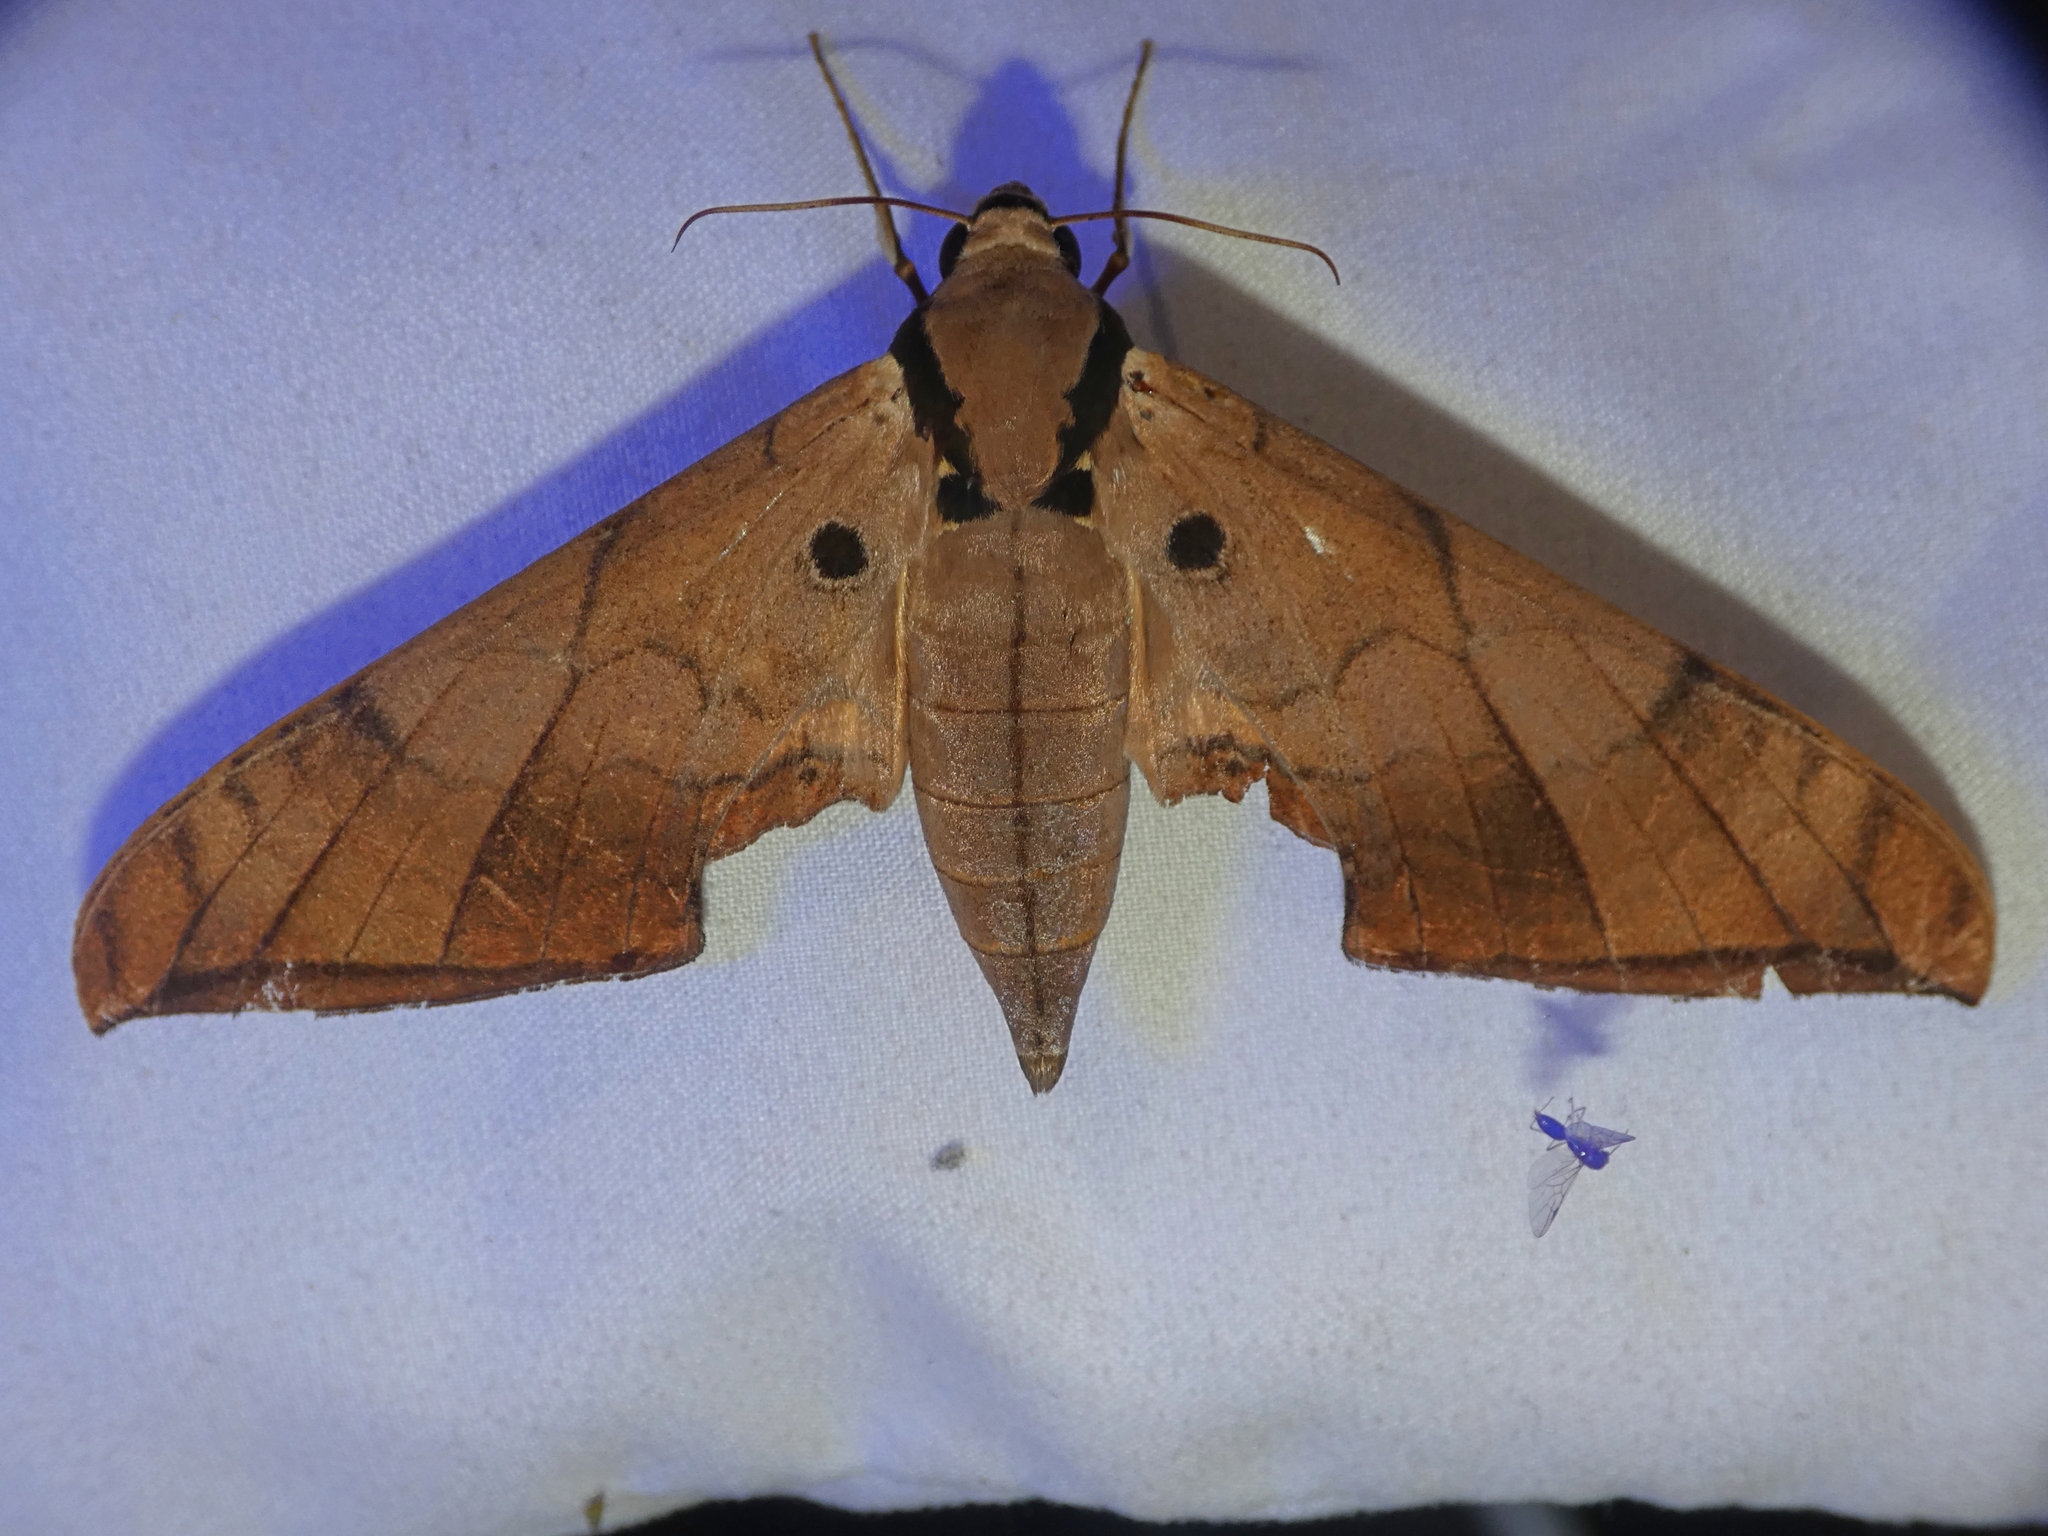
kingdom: Animalia
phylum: Arthropoda
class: Insecta
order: Lepidoptera
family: Sphingidae
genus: Ambulyx
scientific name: Ambulyx wildei
